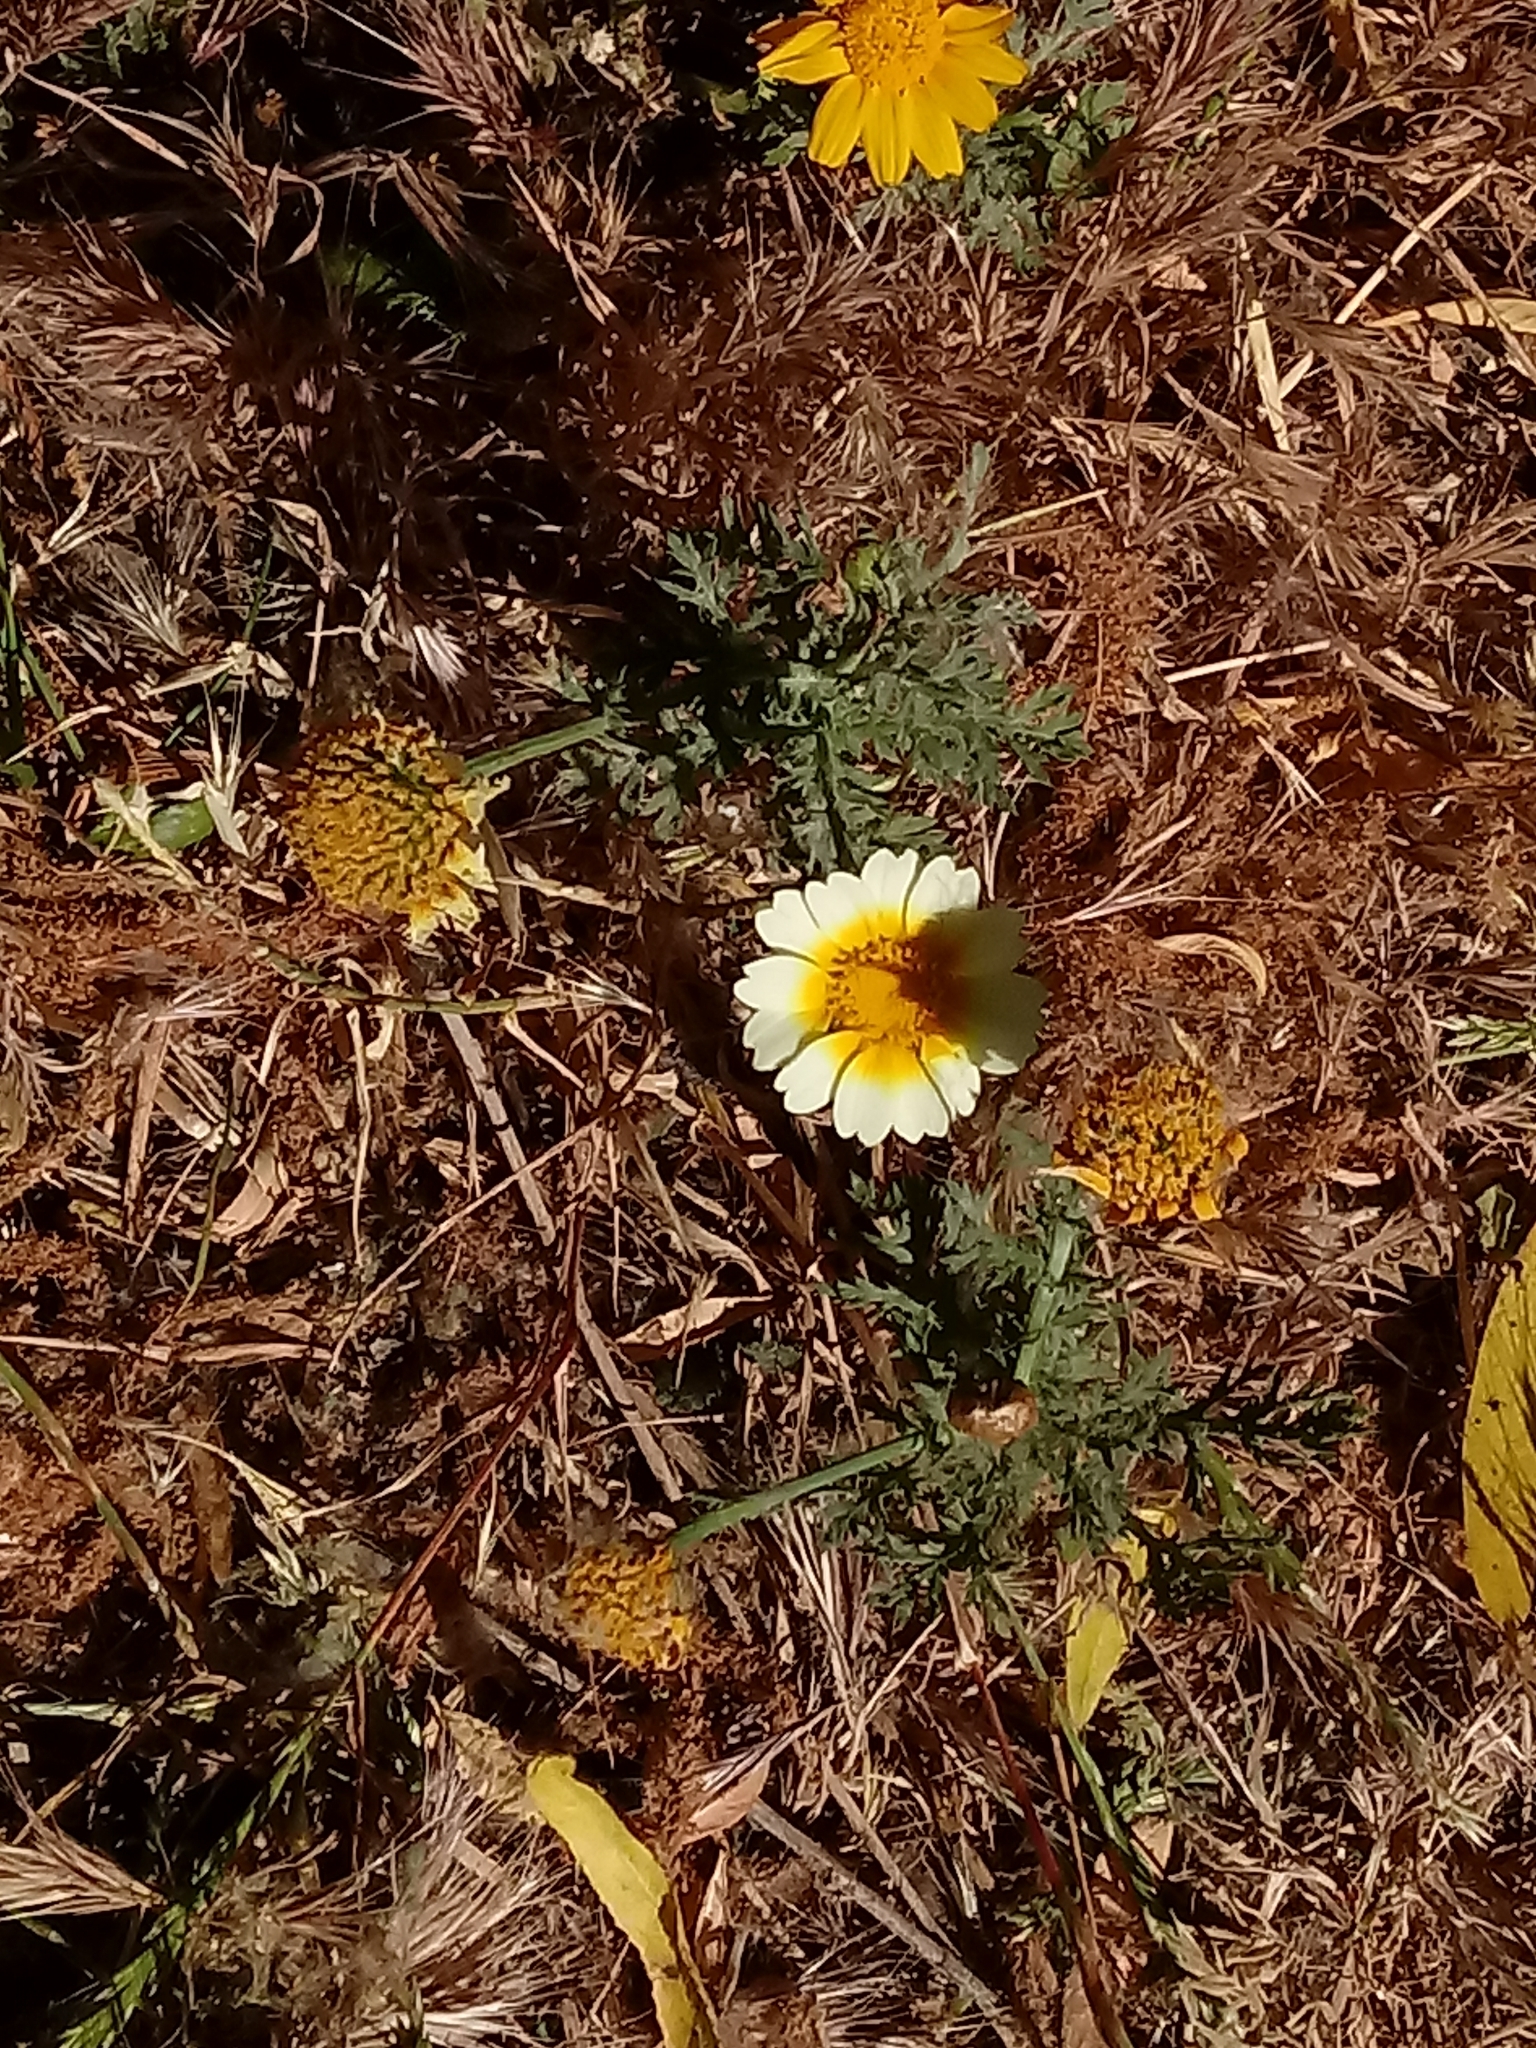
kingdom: Plantae
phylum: Tracheophyta
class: Magnoliopsida
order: Asterales
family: Asteraceae
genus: Glebionis
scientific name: Glebionis coronaria
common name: Crowndaisy
